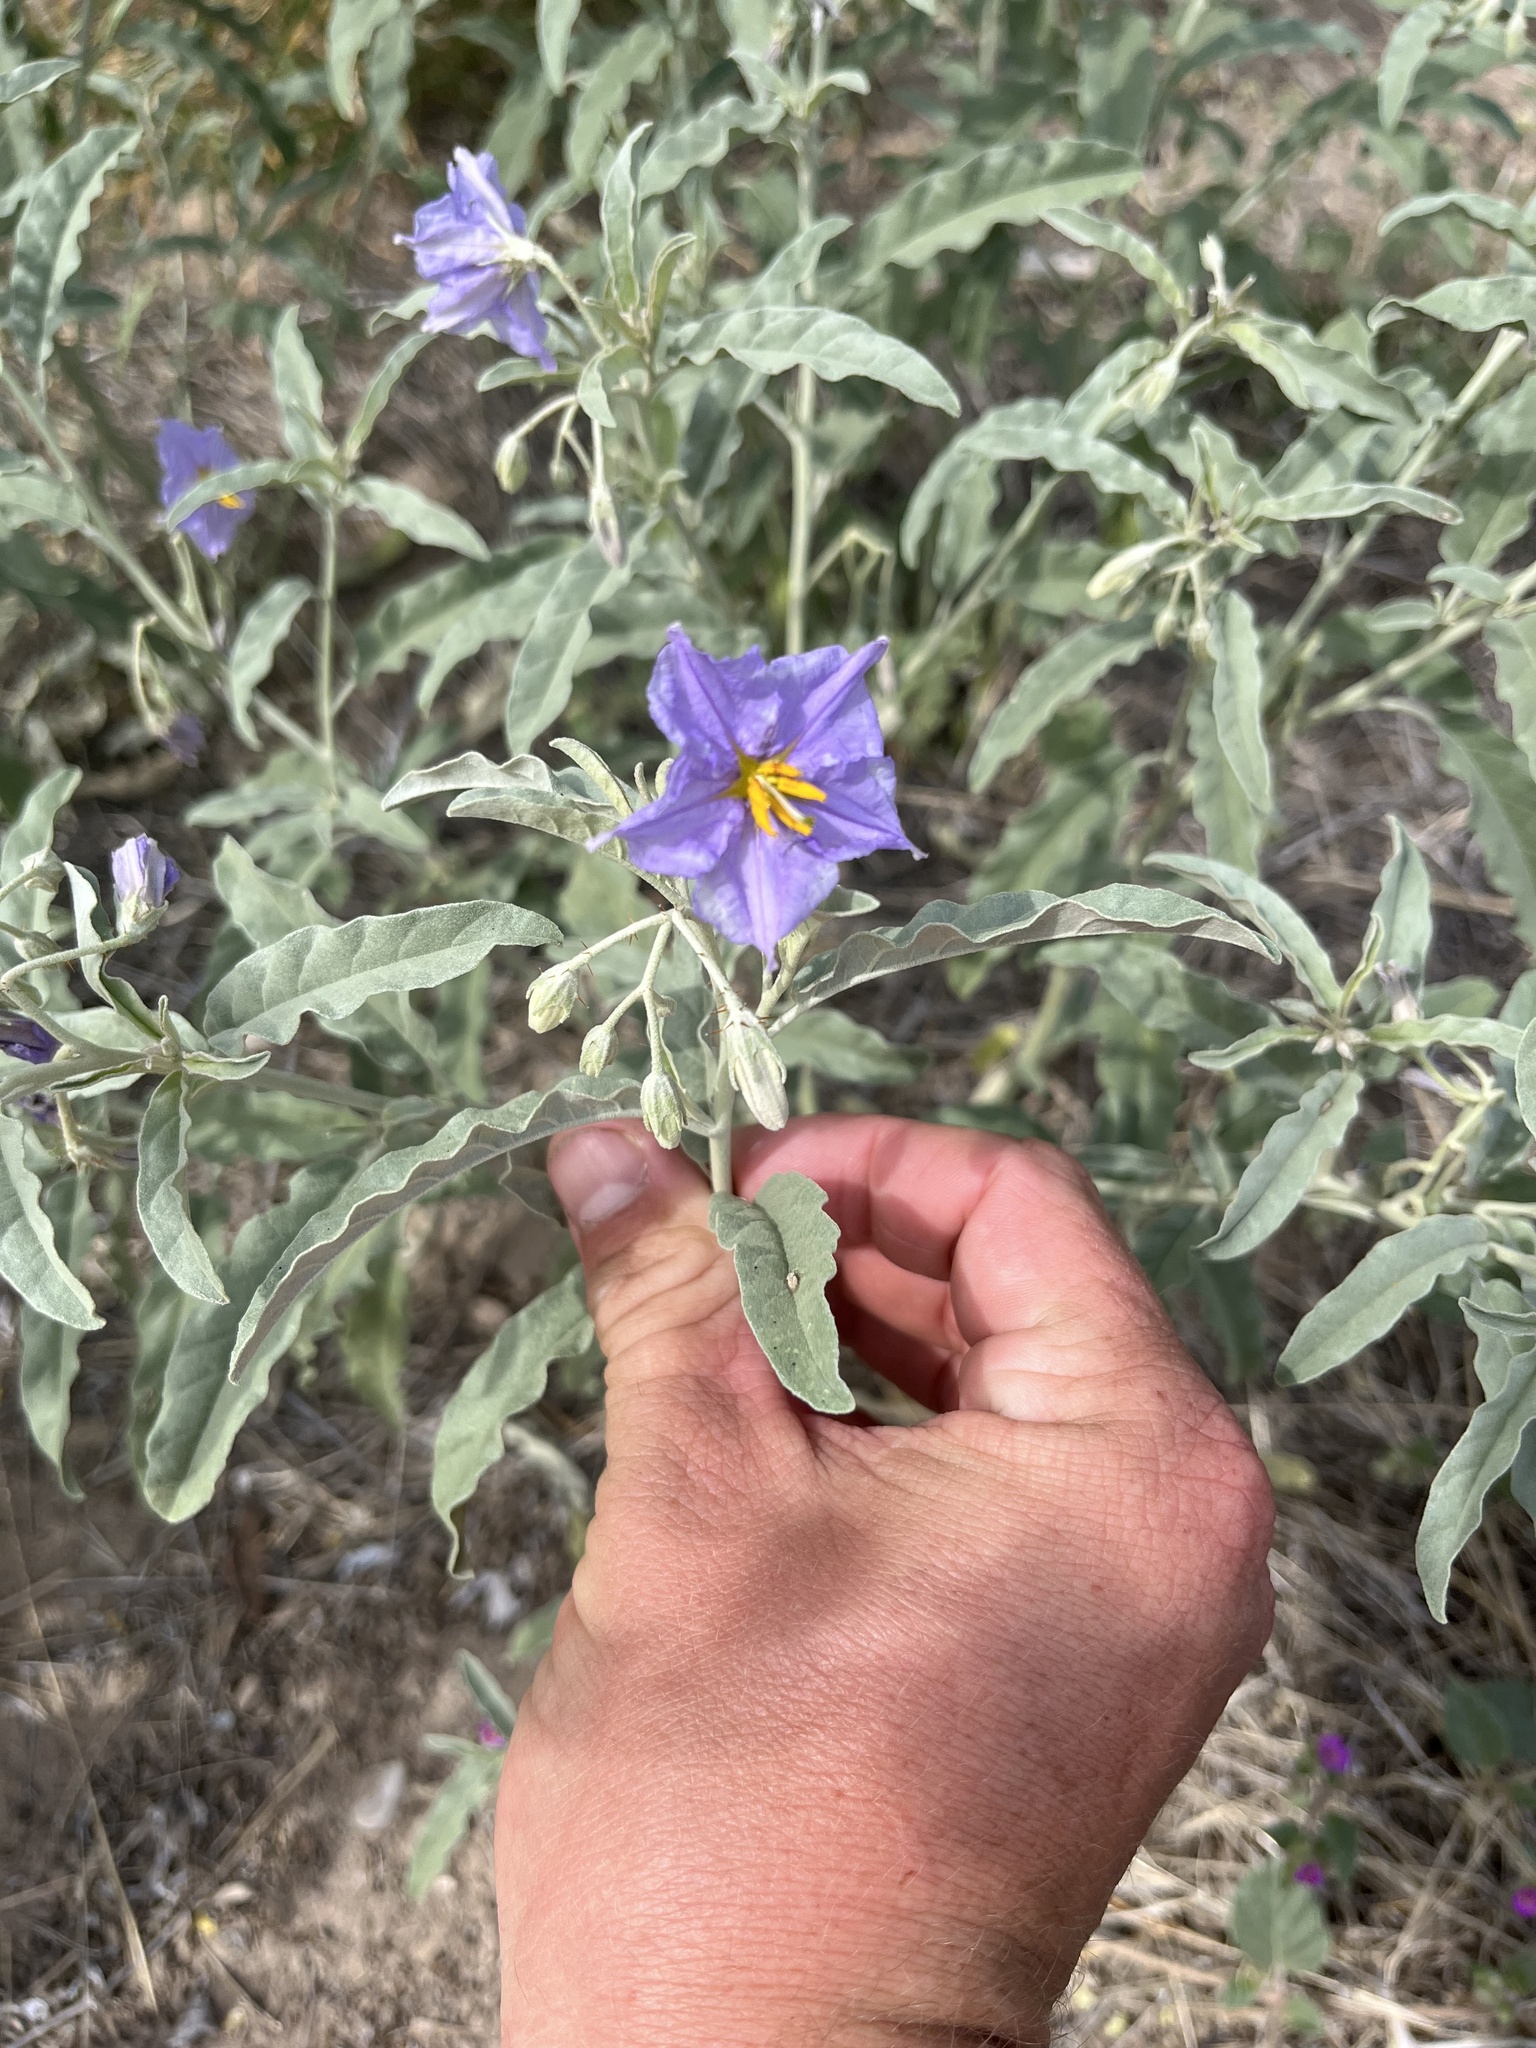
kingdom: Plantae
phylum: Tracheophyta
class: Magnoliopsida
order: Solanales
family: Solanaceae
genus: Solanum
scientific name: Solanum elaeagnifolium
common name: Silverleaf nightshade
